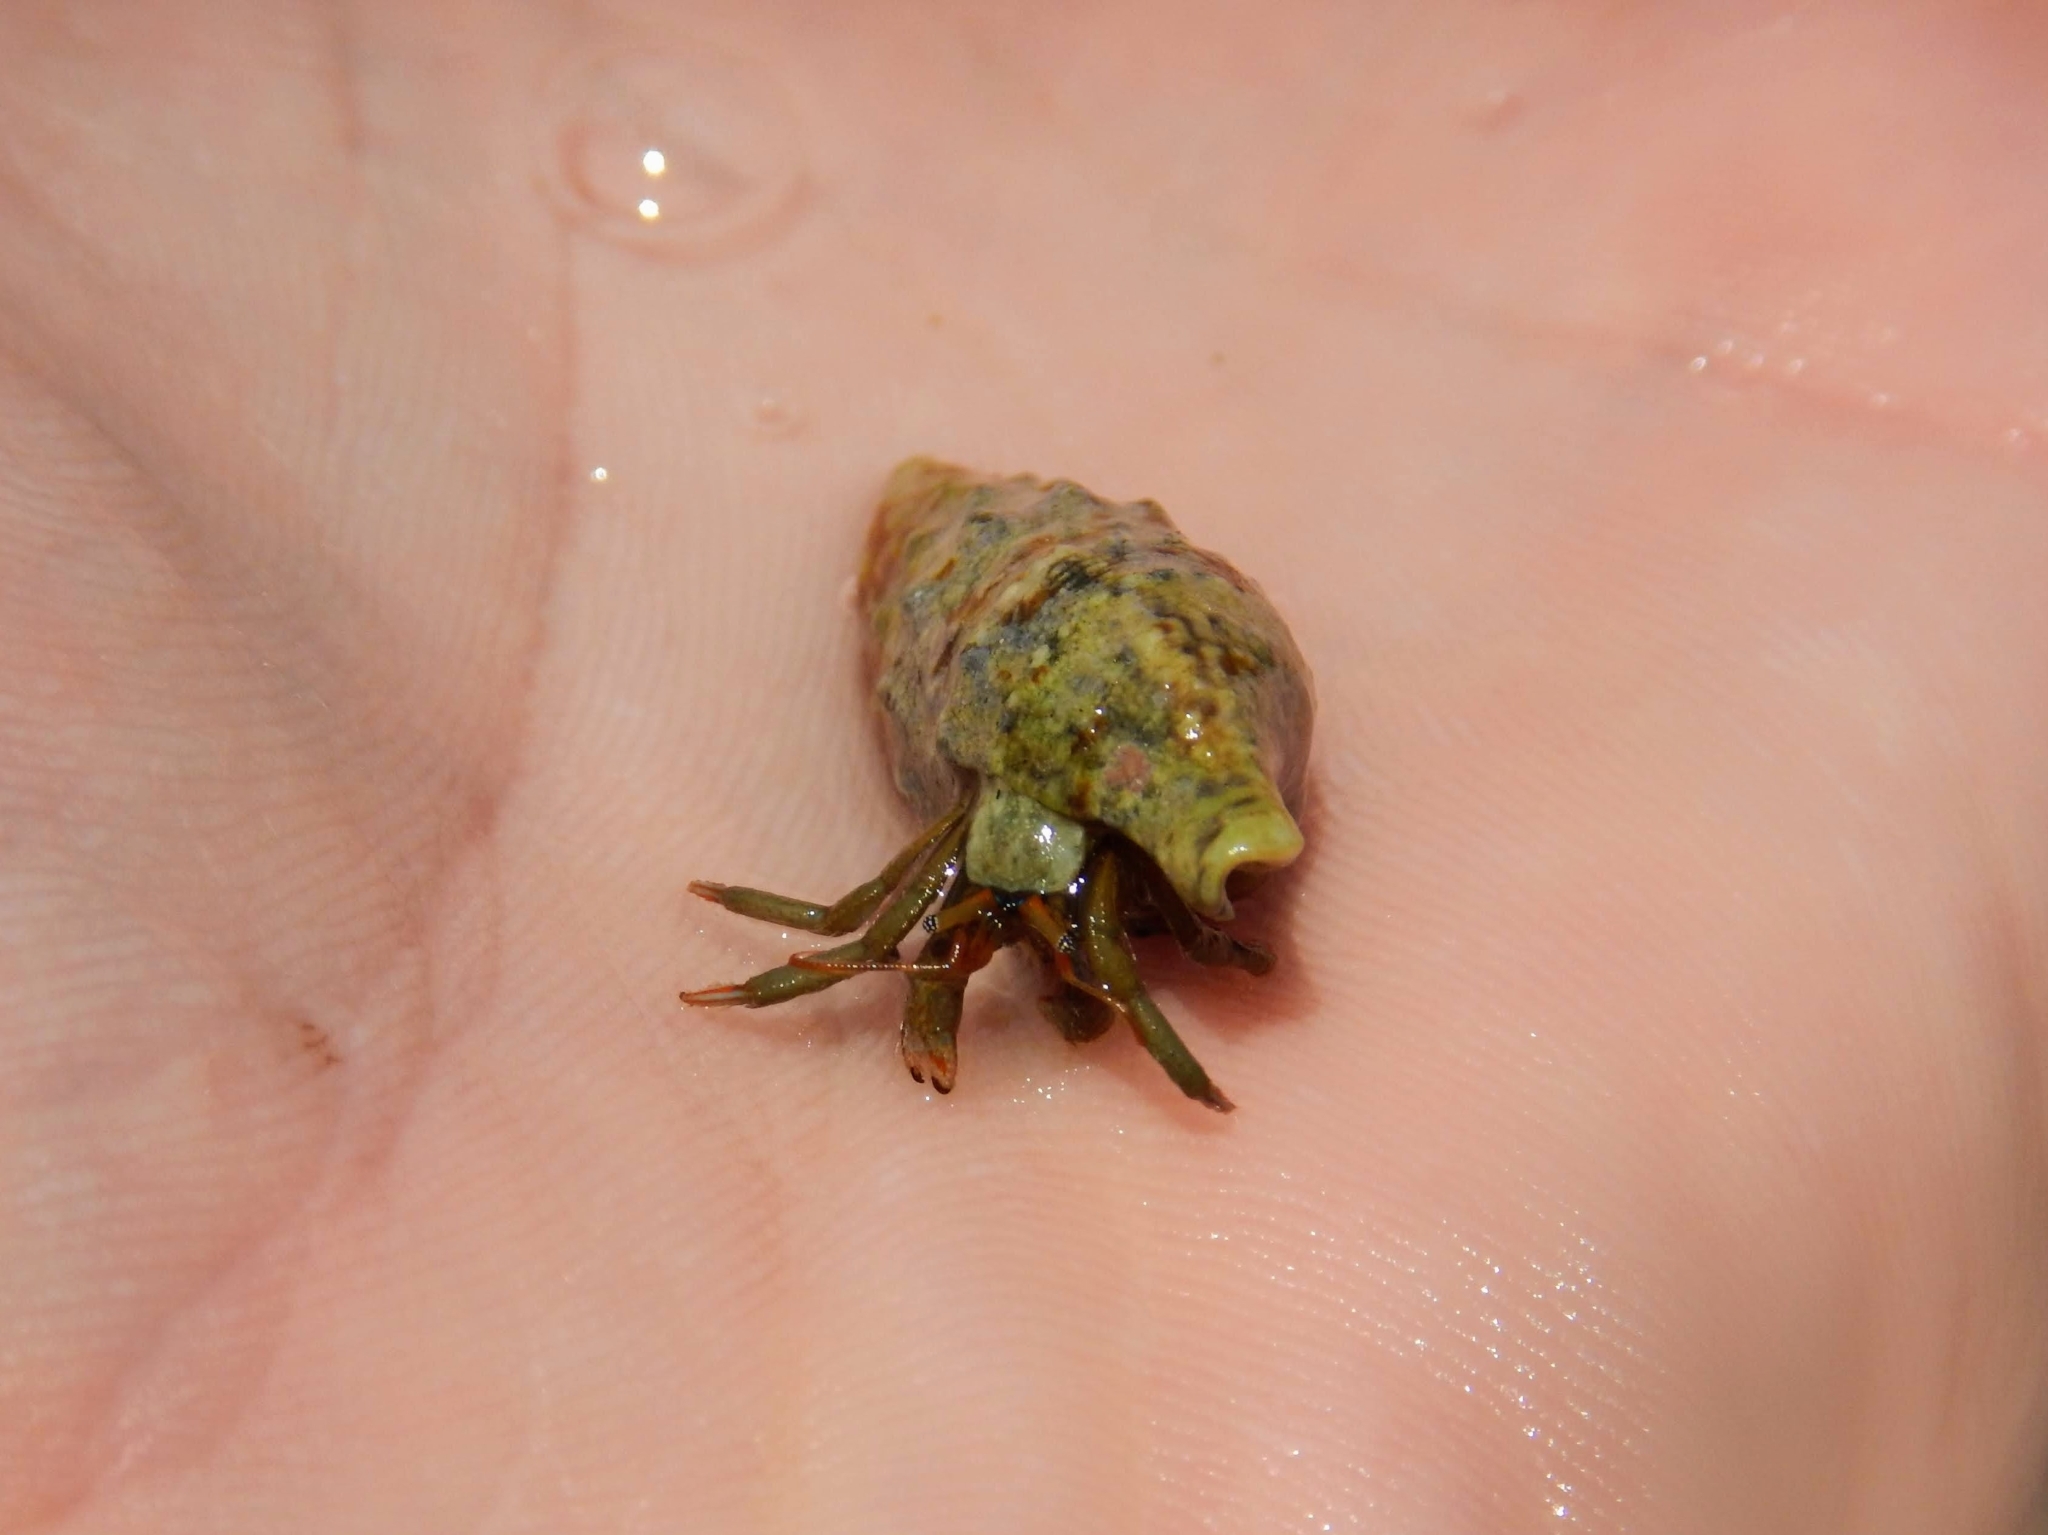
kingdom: Animalia
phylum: Arthropoda
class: Malacostraca
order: Decapoda
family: Diogenidae
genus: Clibanarius
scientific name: Clibanarius erythropus
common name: Hermit crab
